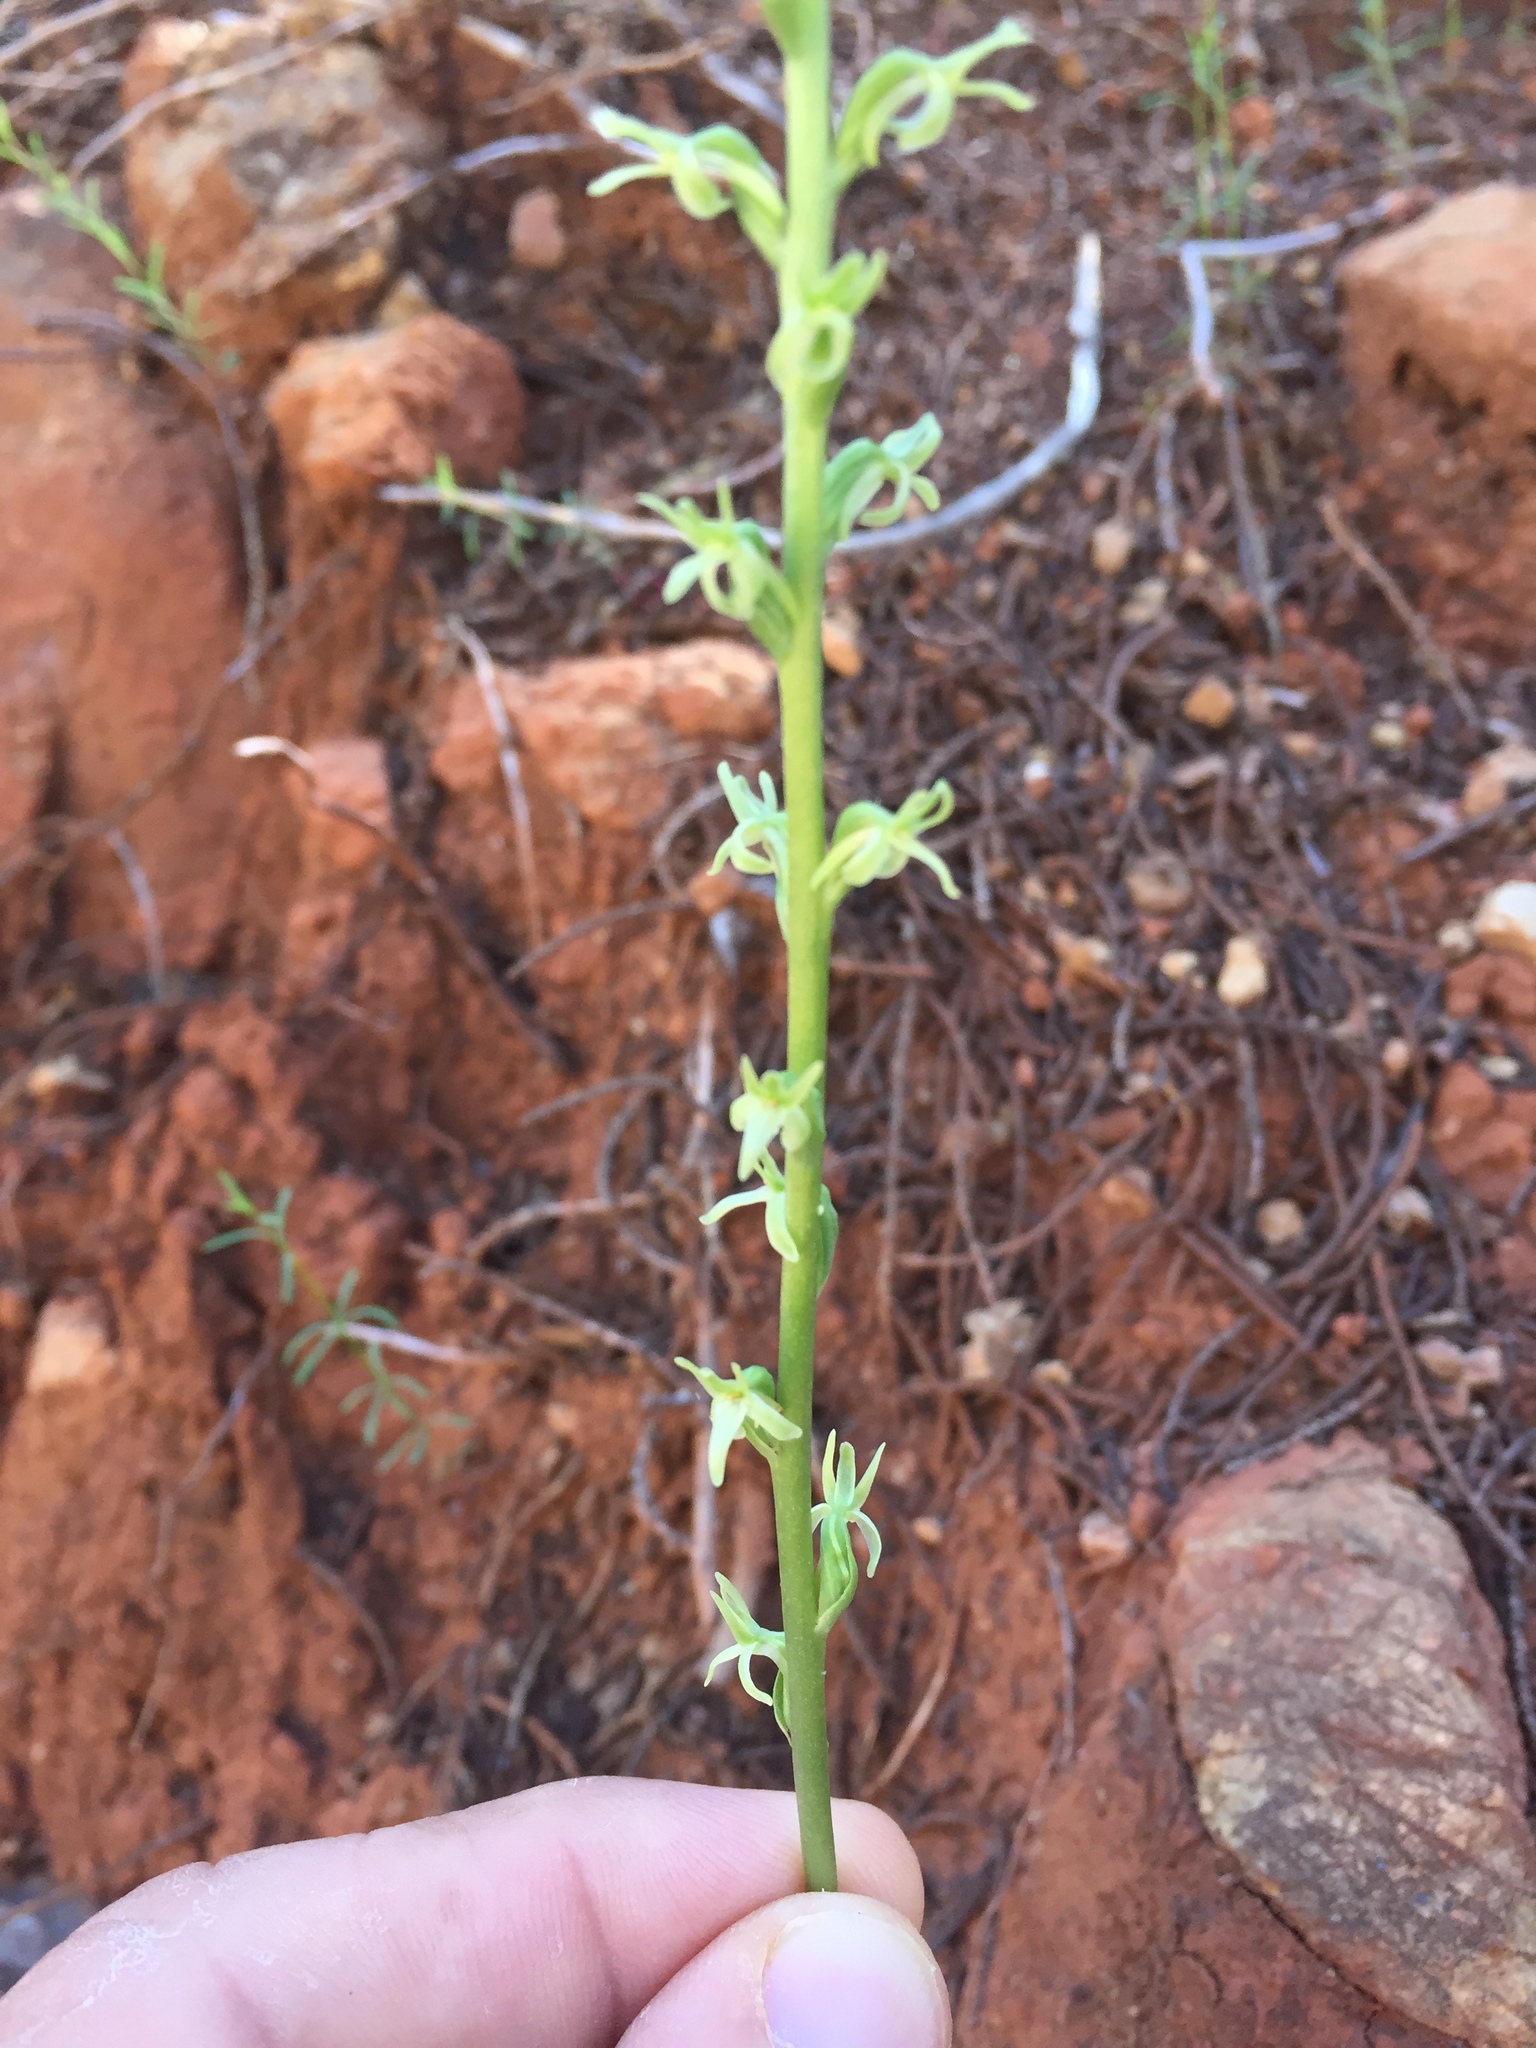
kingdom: Plantae
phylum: Tracheophyta
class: Liliopsida
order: Asparagales
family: Orchidaceae
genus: Platanthera
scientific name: Platanthera leptopetala
